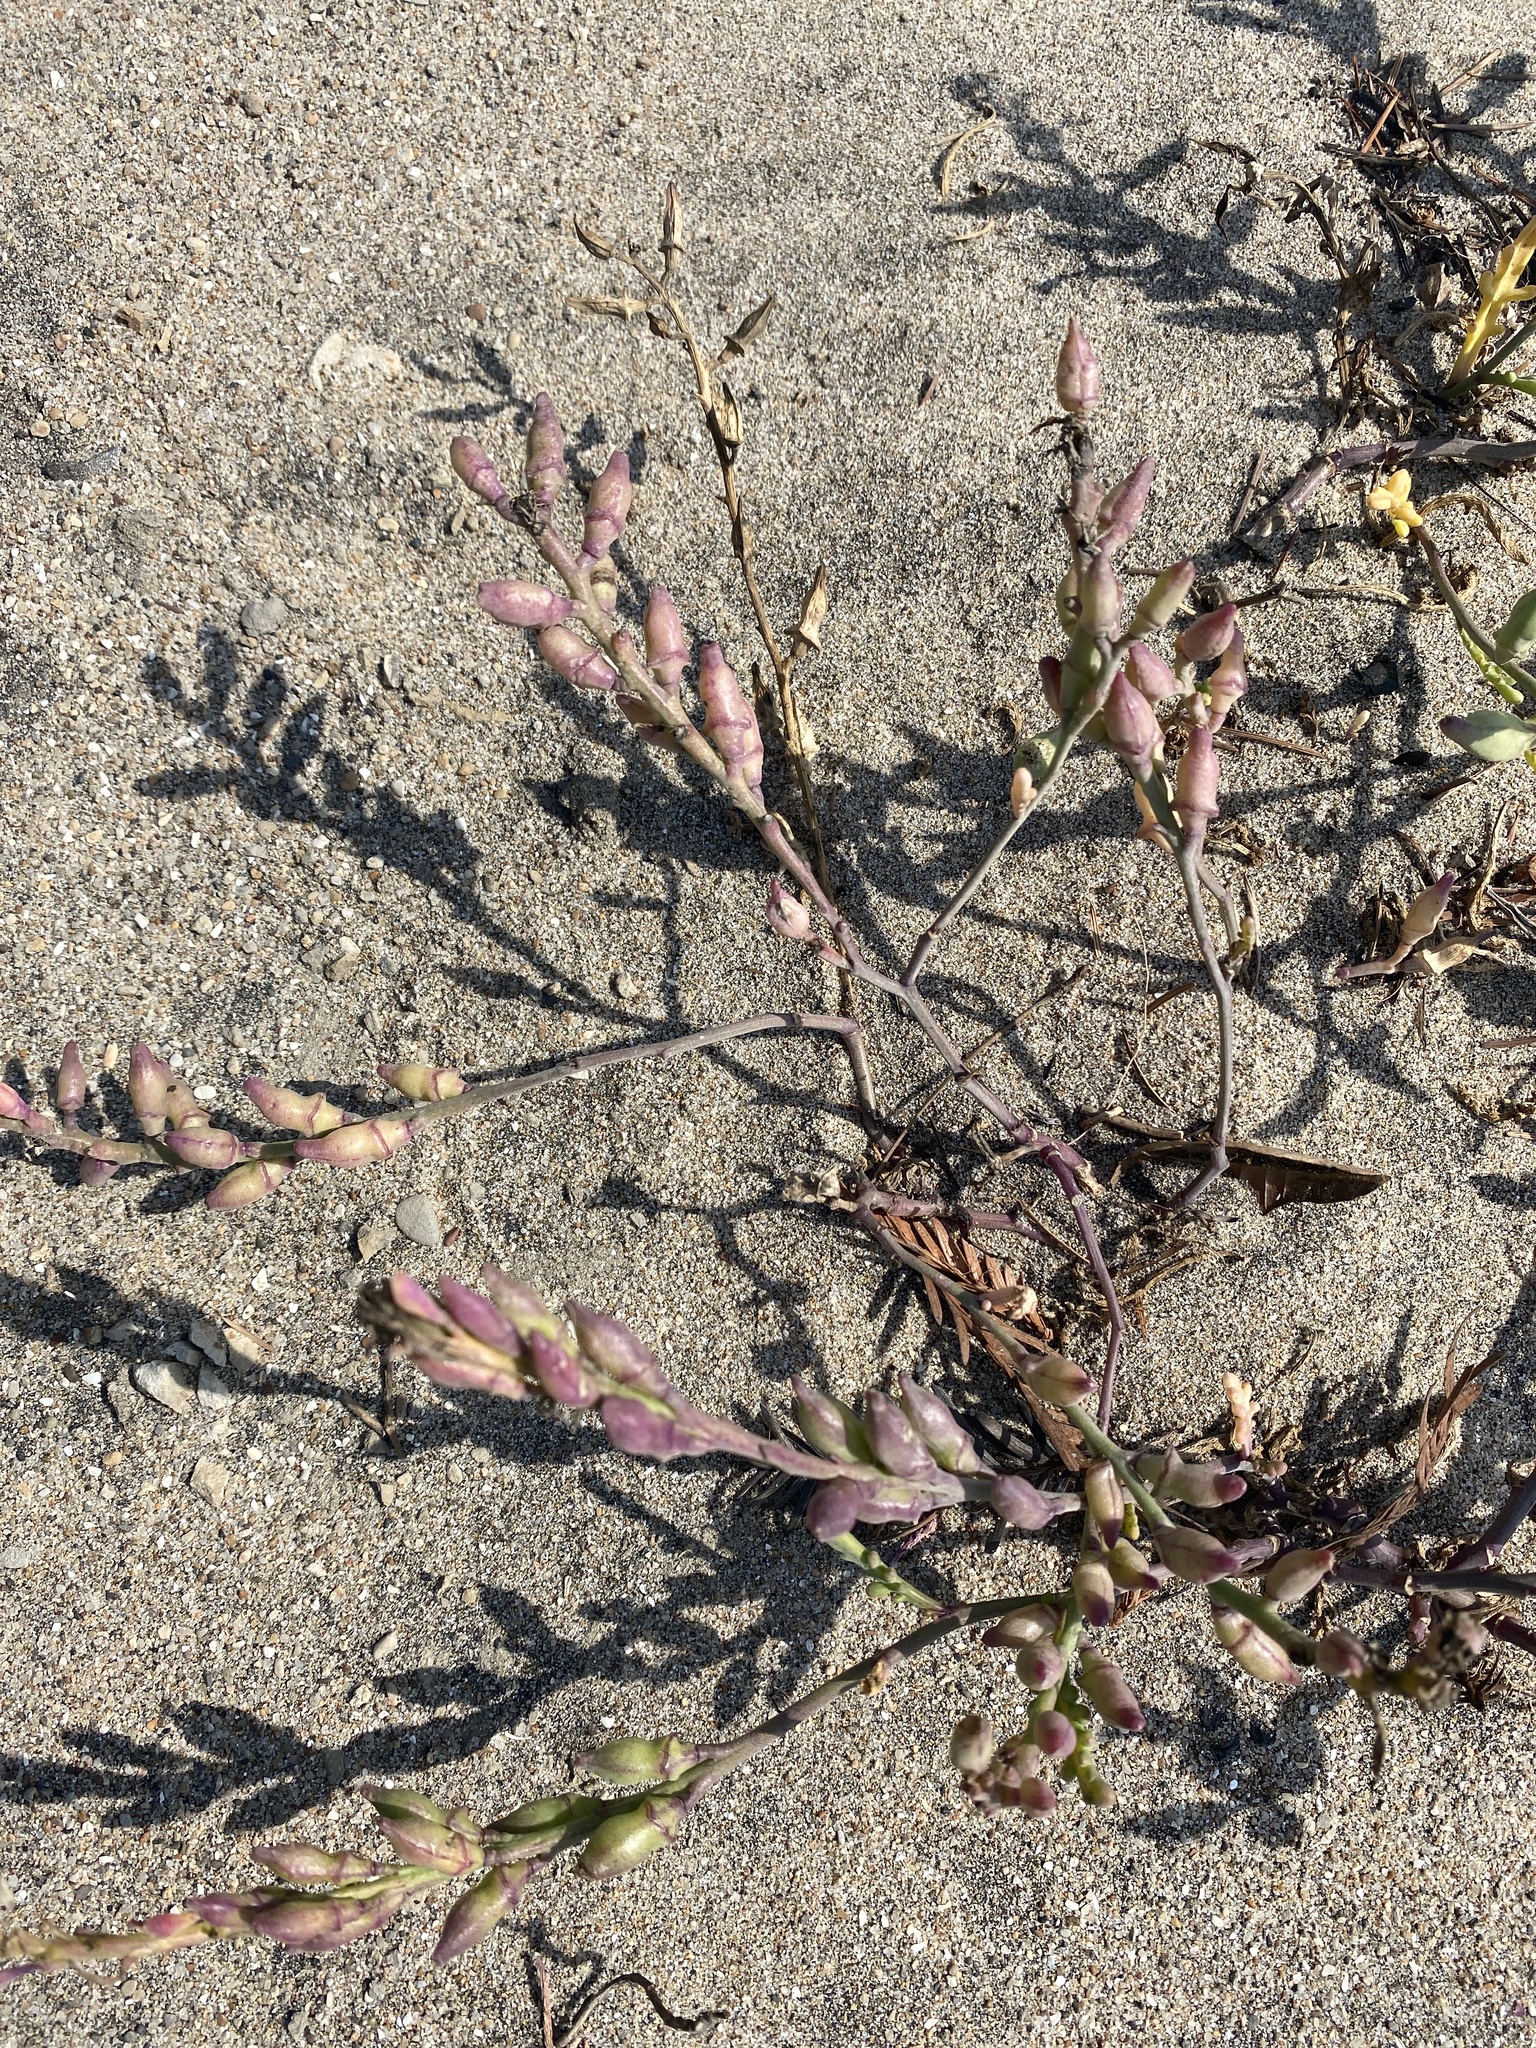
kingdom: Plantae
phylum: Tracheophyta
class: Magnoliopsida
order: Brassicales
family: Brassicaceae
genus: Cakile
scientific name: Cakile maritima
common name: Sea rocket
